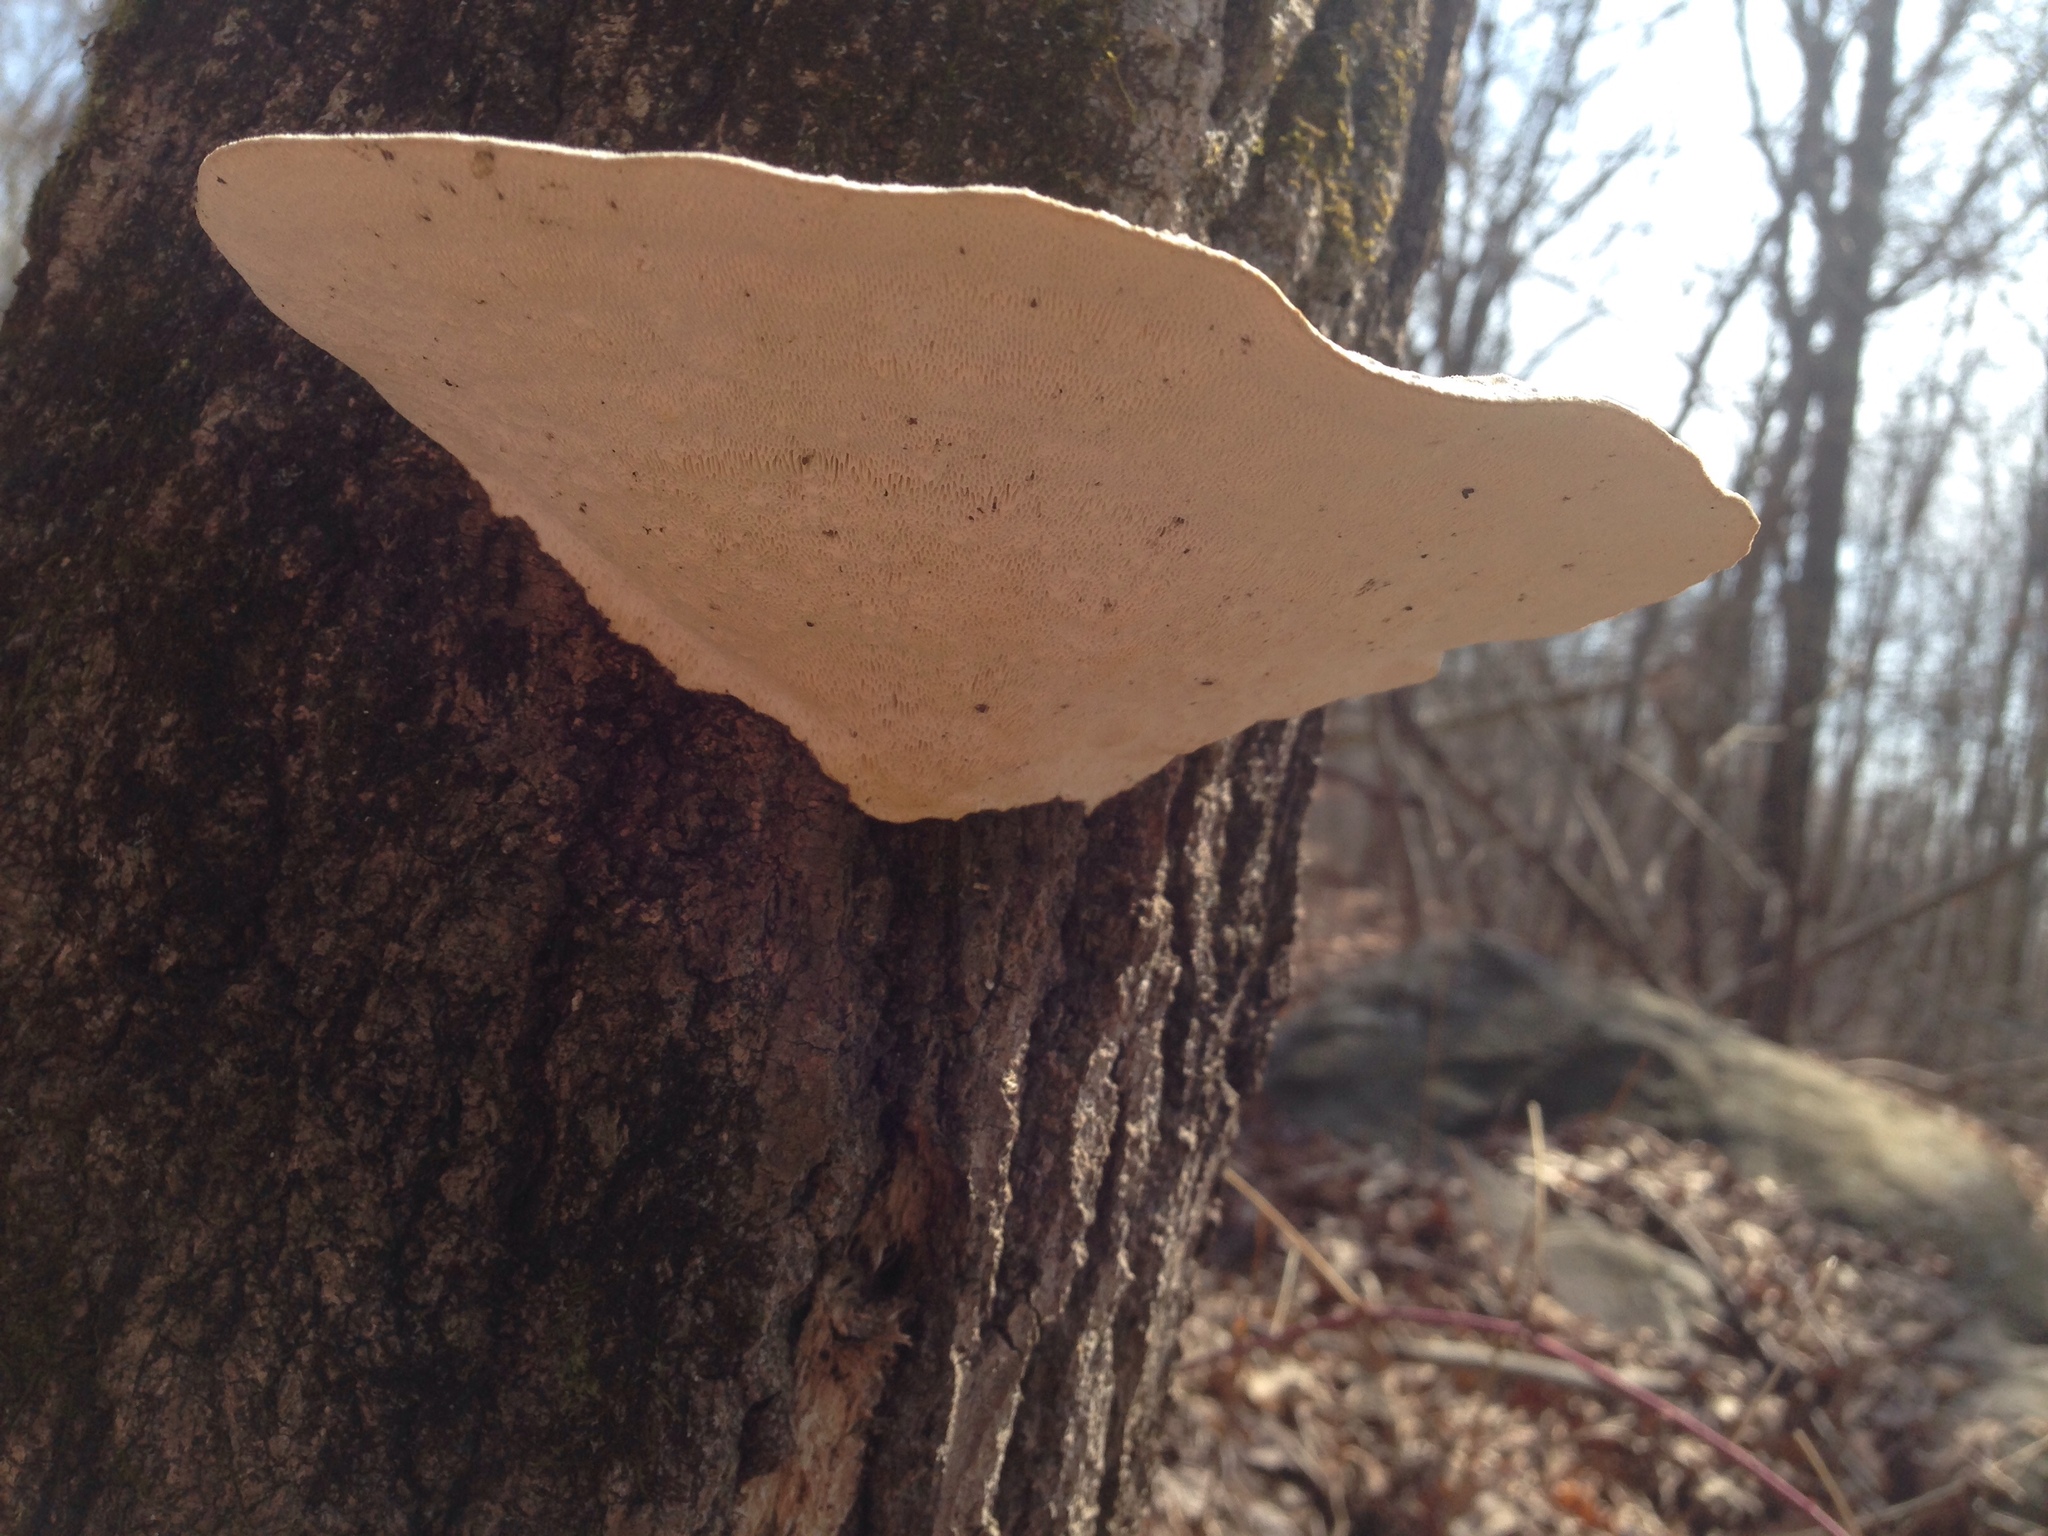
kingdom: Fungi
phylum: Basidiomycota
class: Agaricomycetes
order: Polyporales
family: Polyporaceae
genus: Trametes
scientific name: Trametes gibbosa
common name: Lumpy bracket
